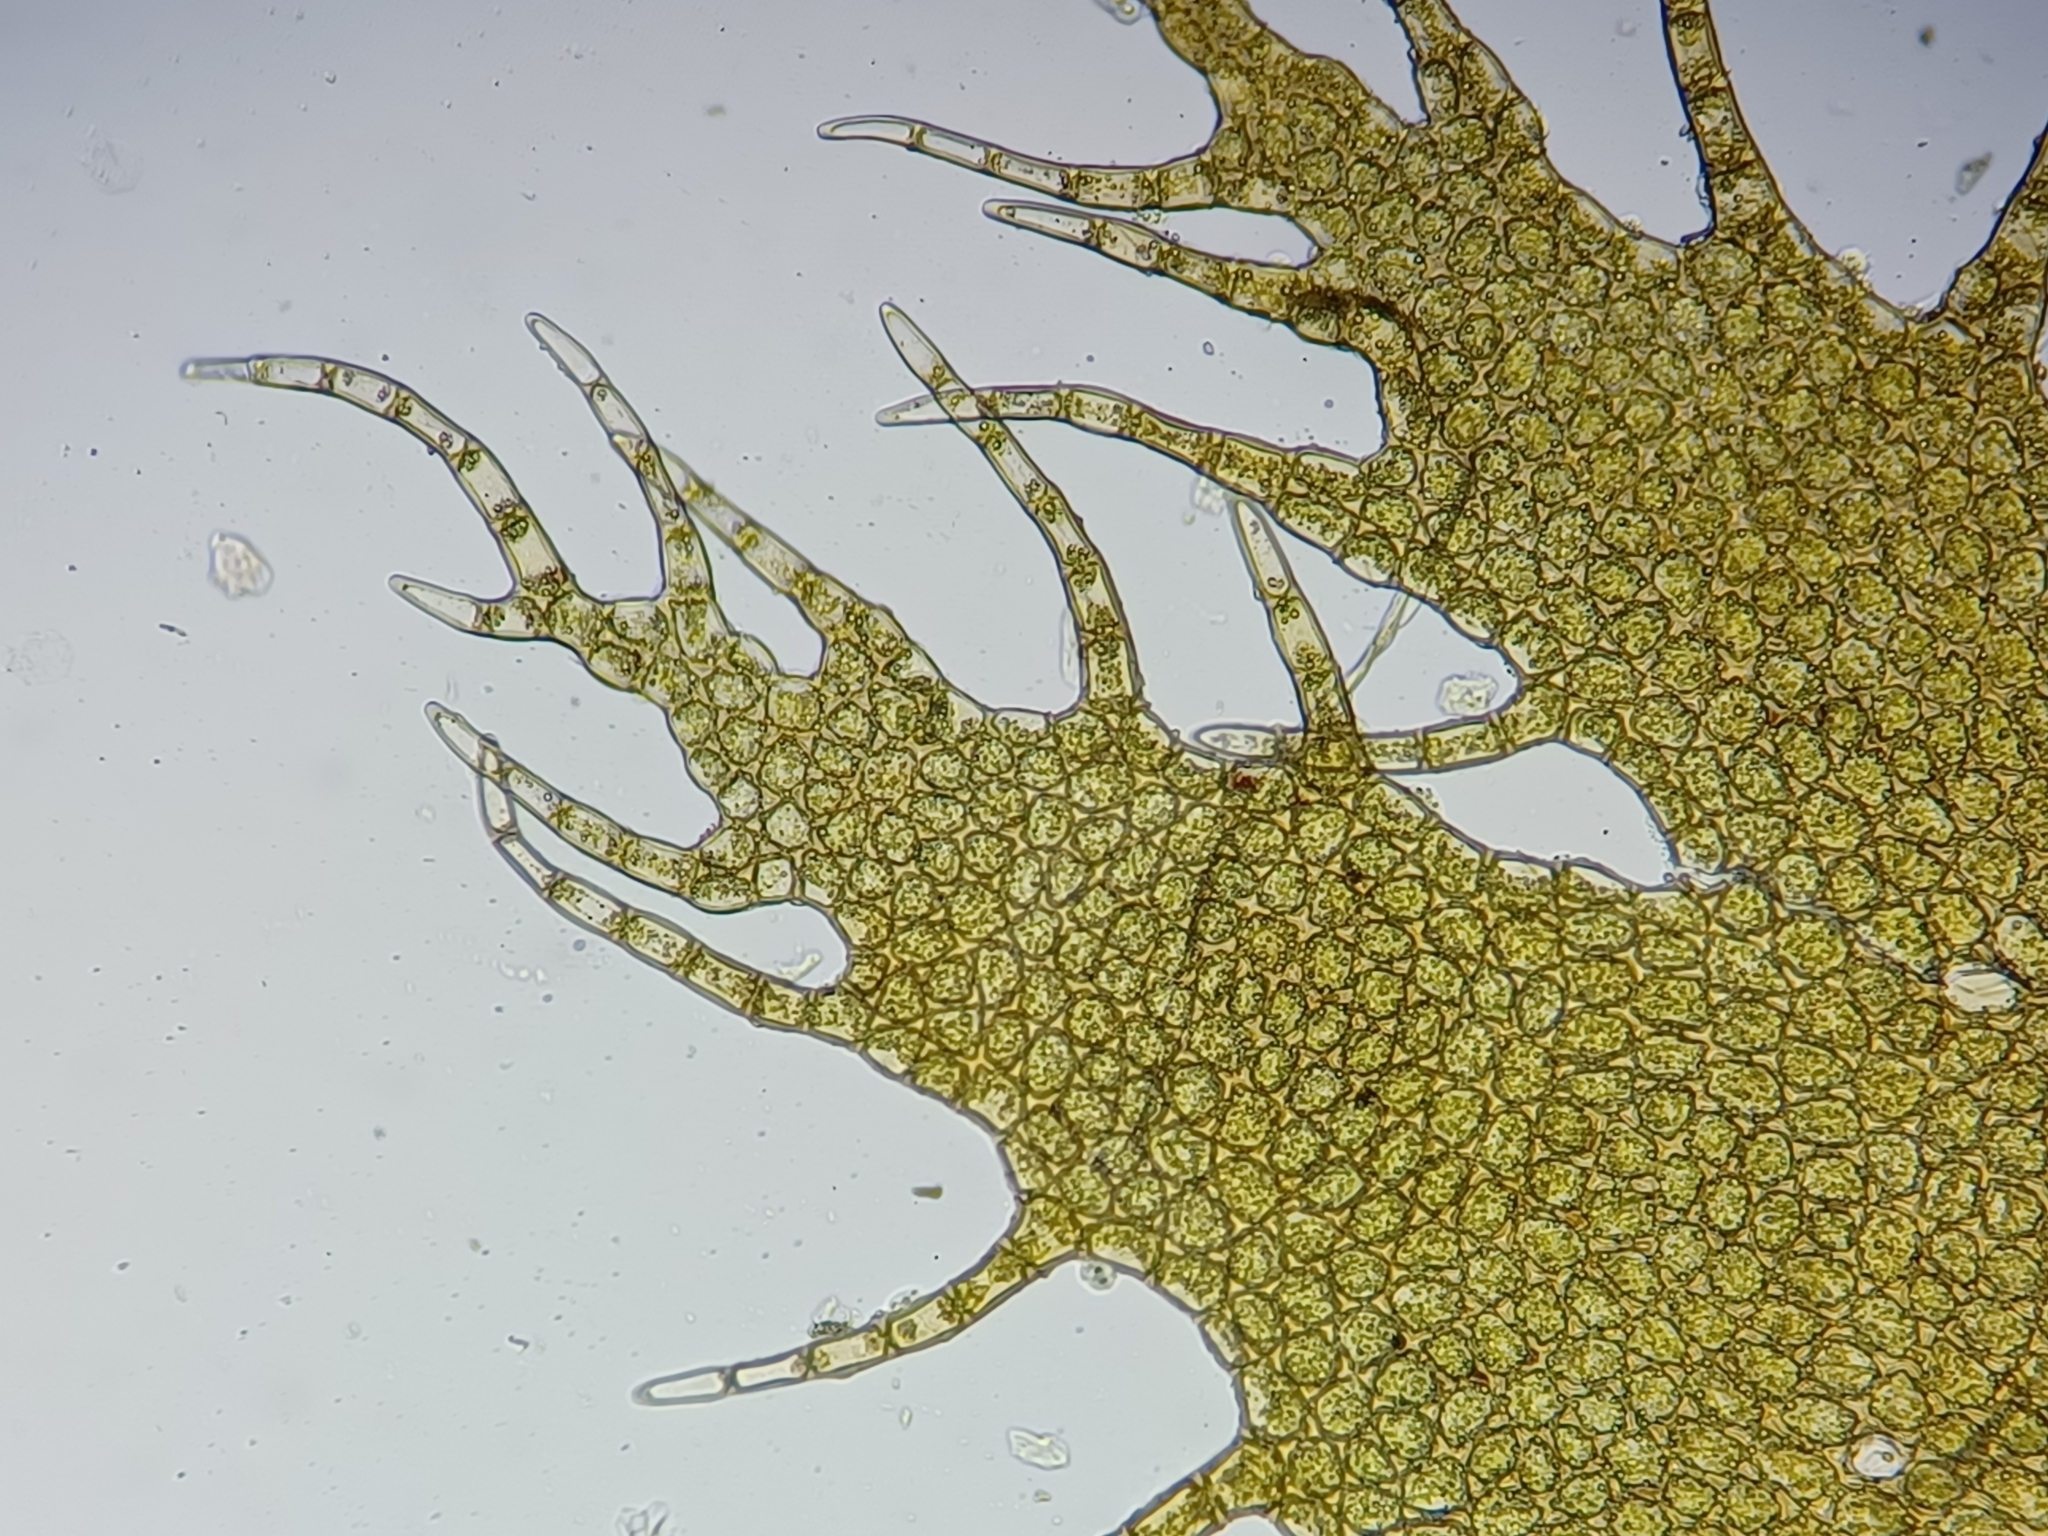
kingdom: Plantae
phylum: Marchantiophyta
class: Jungermanniopsida
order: Ptilidiales
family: Ptilidiaceae
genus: Ptilidium
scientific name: Ptilidium ciliare
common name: Ciliate fringewort
